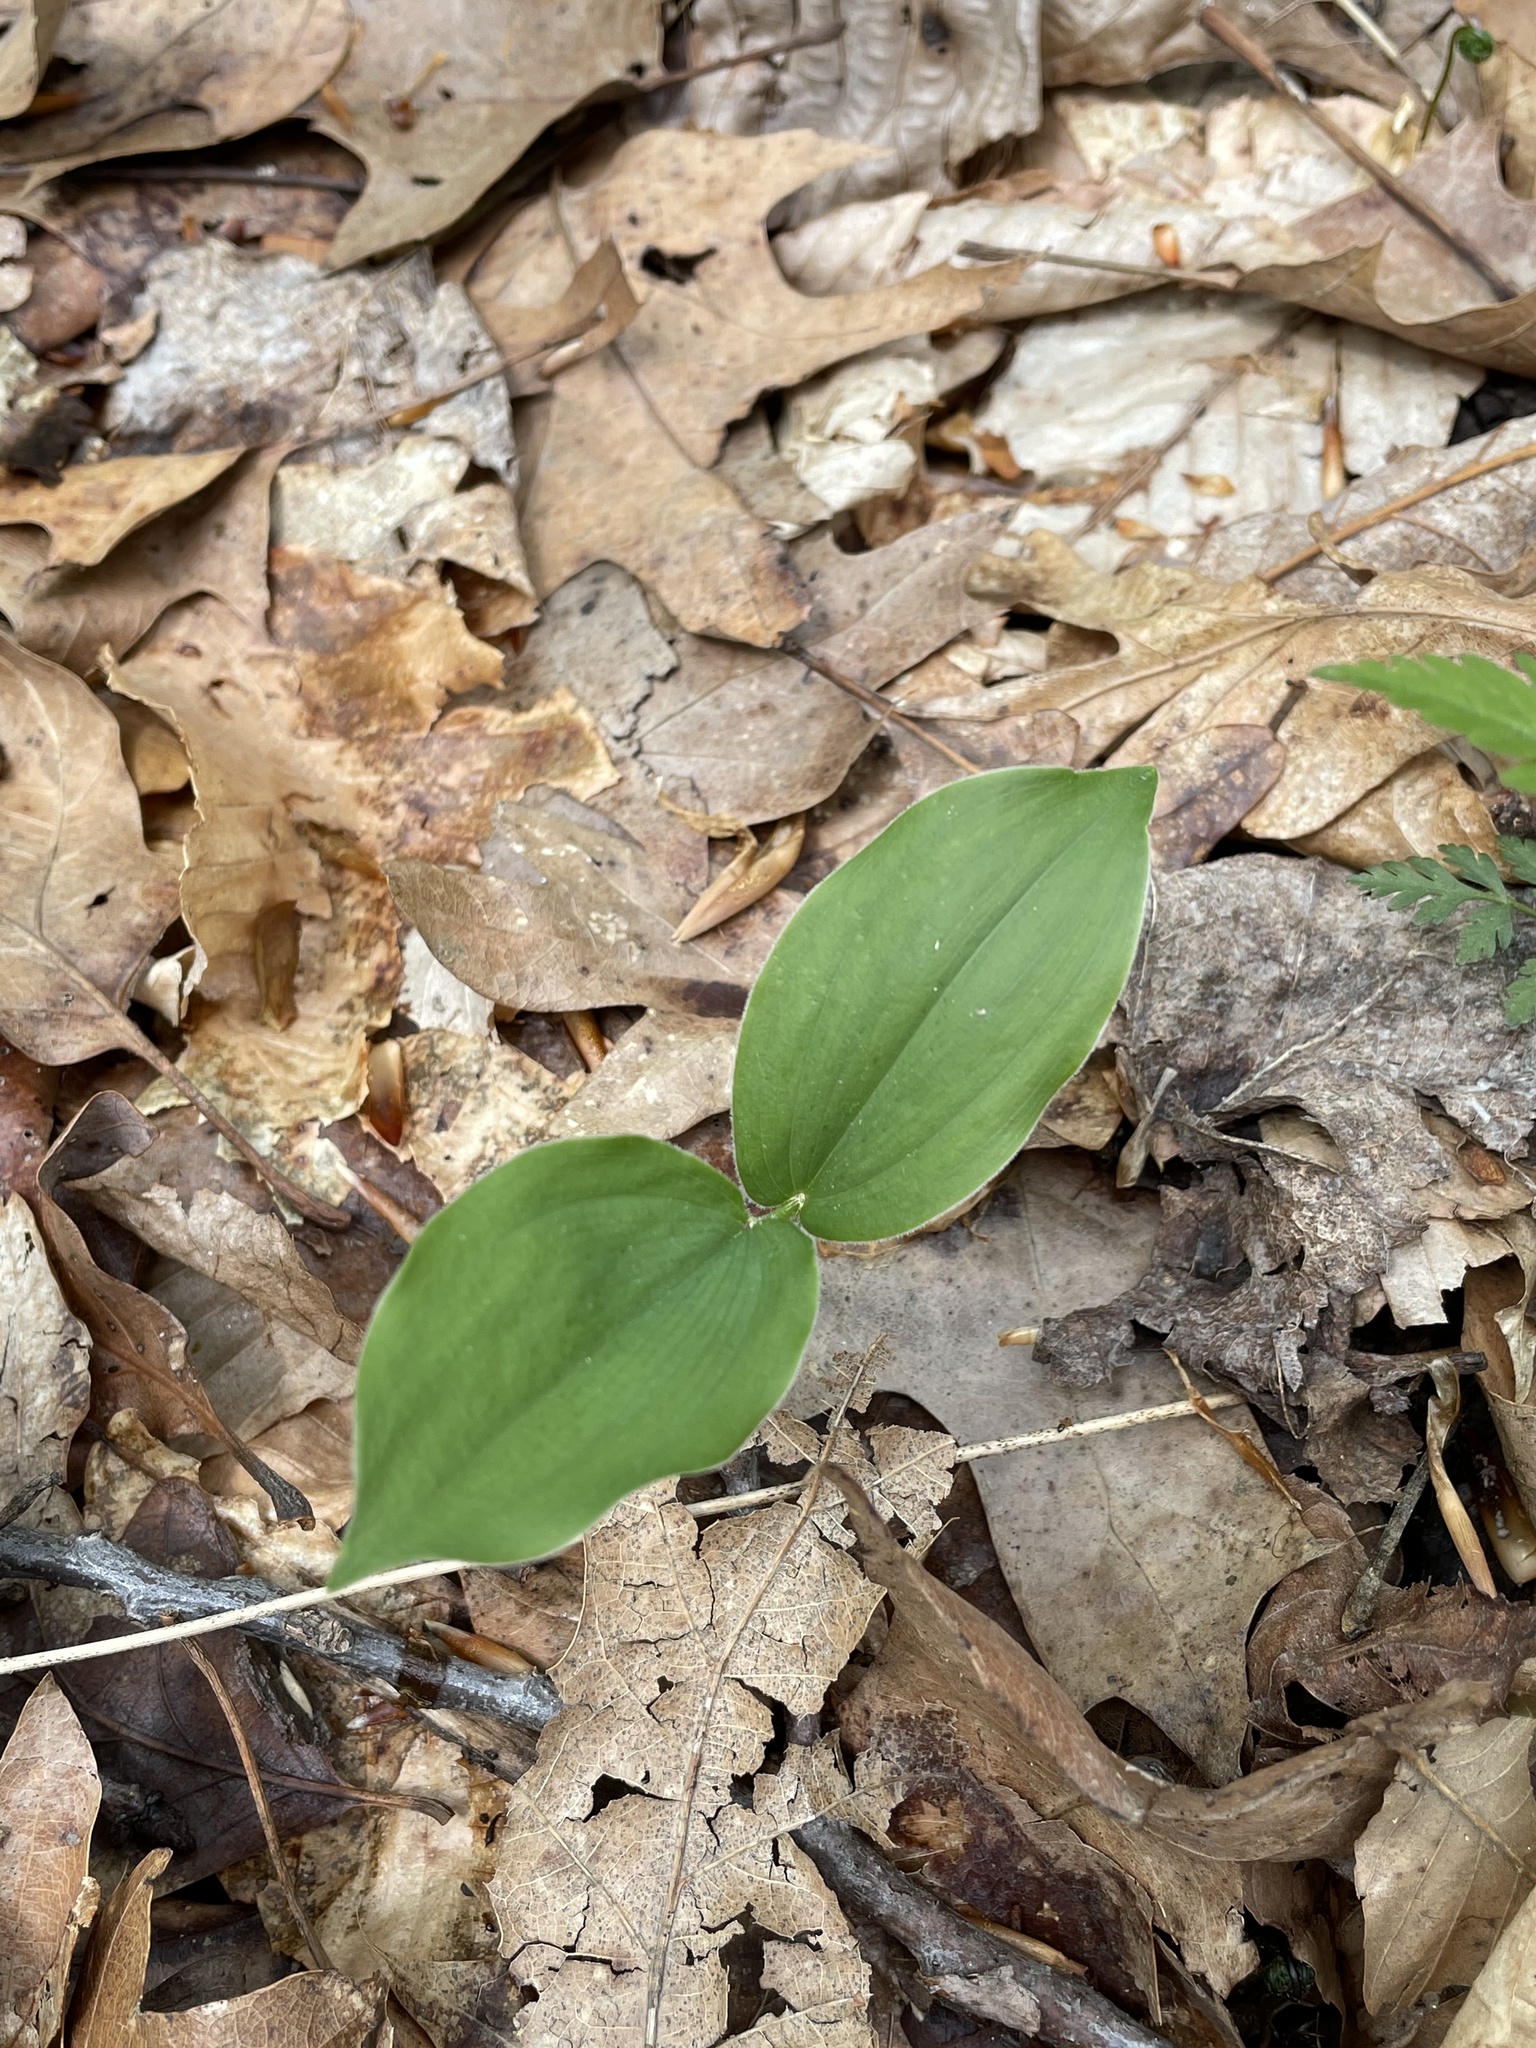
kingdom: Plantae
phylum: Tracheophyta
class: Liliopsida
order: Asparagales
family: Asparagaceae
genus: Maianthemum
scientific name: Maianthemum racemosum
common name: False spikenard
